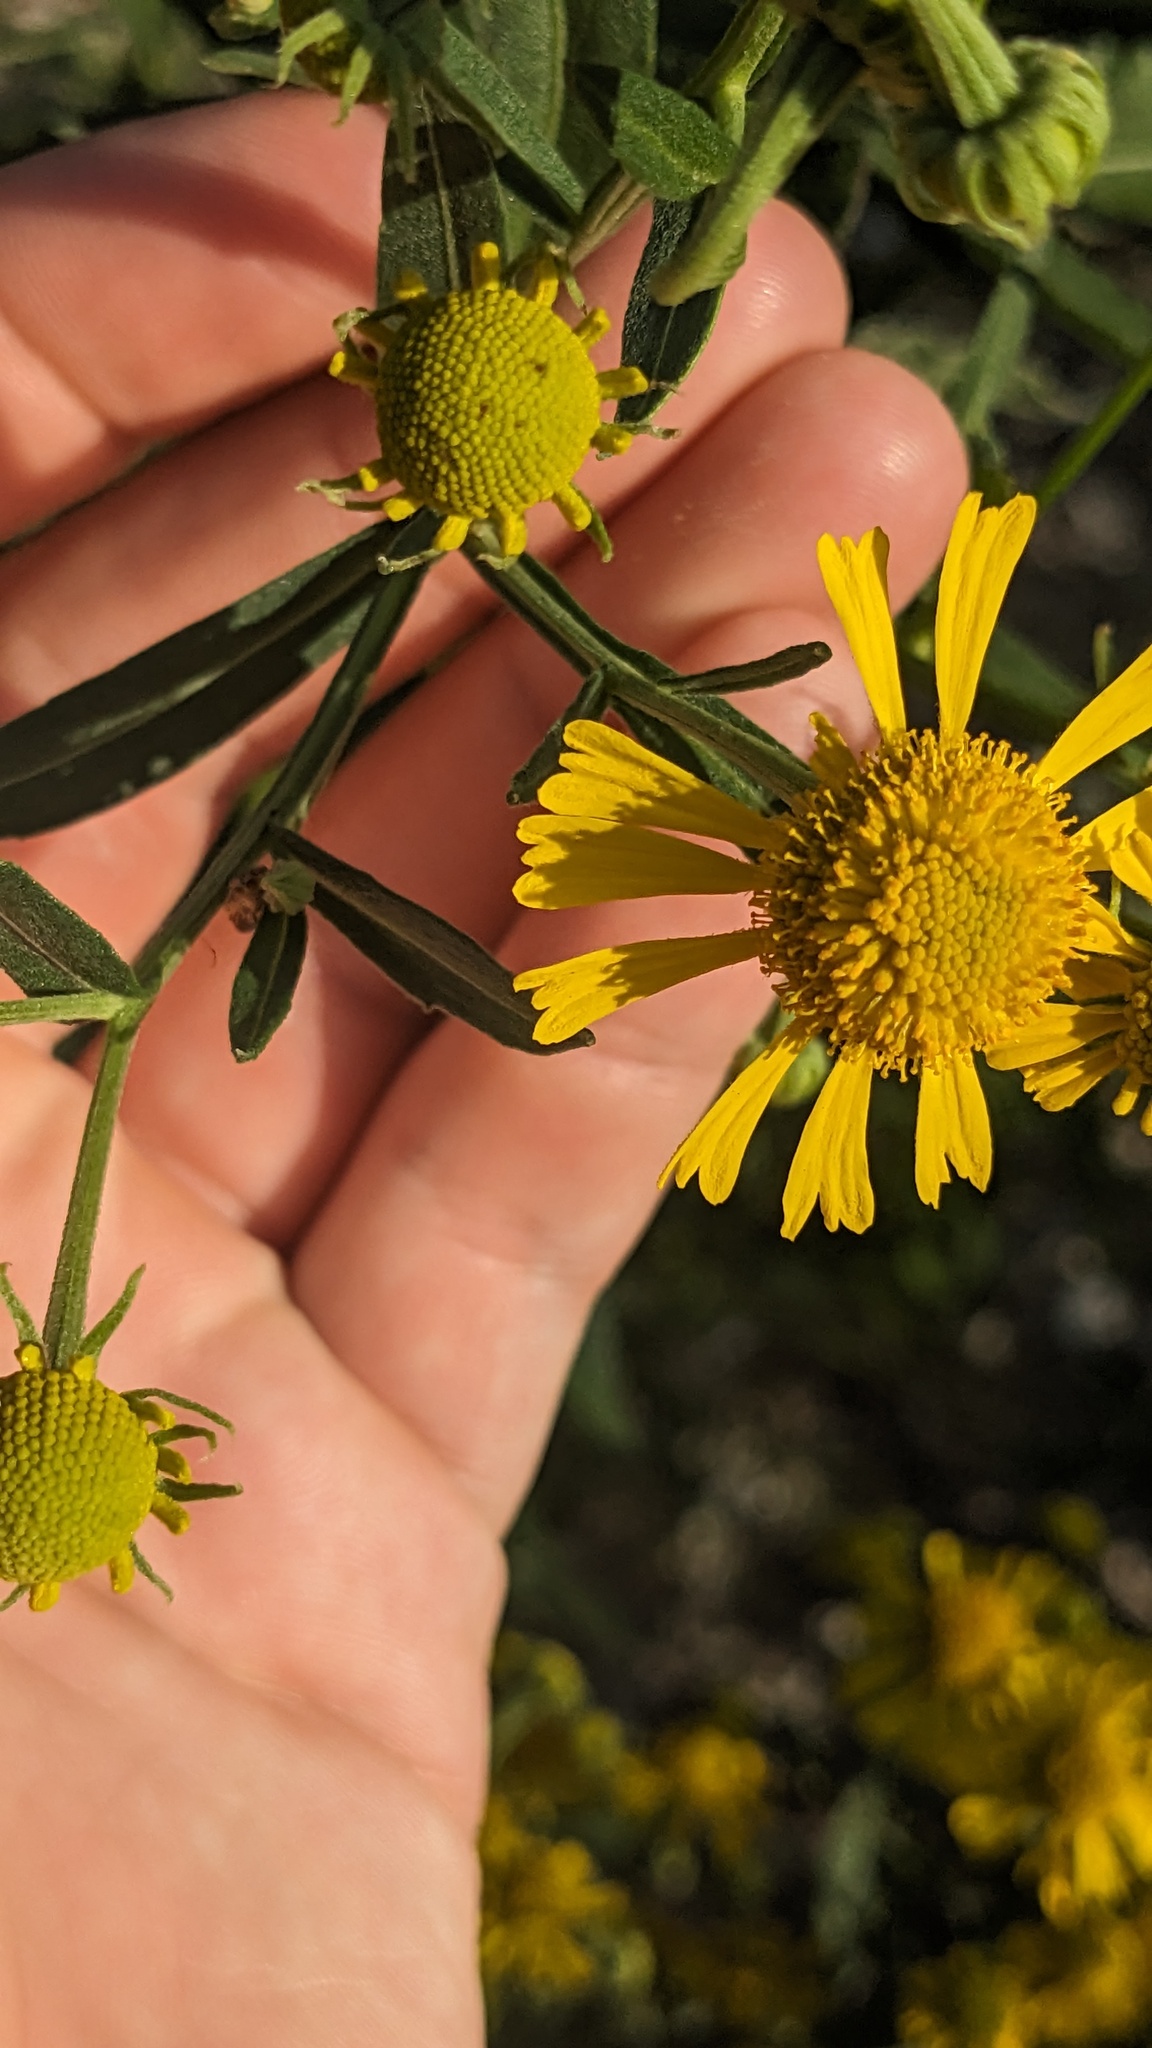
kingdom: Plantae
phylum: Tracheophyta
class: Magnoliopsida
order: Asterales
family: Asteraceae
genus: Helenium
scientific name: Helenium autumnale
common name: Sneezeweed
